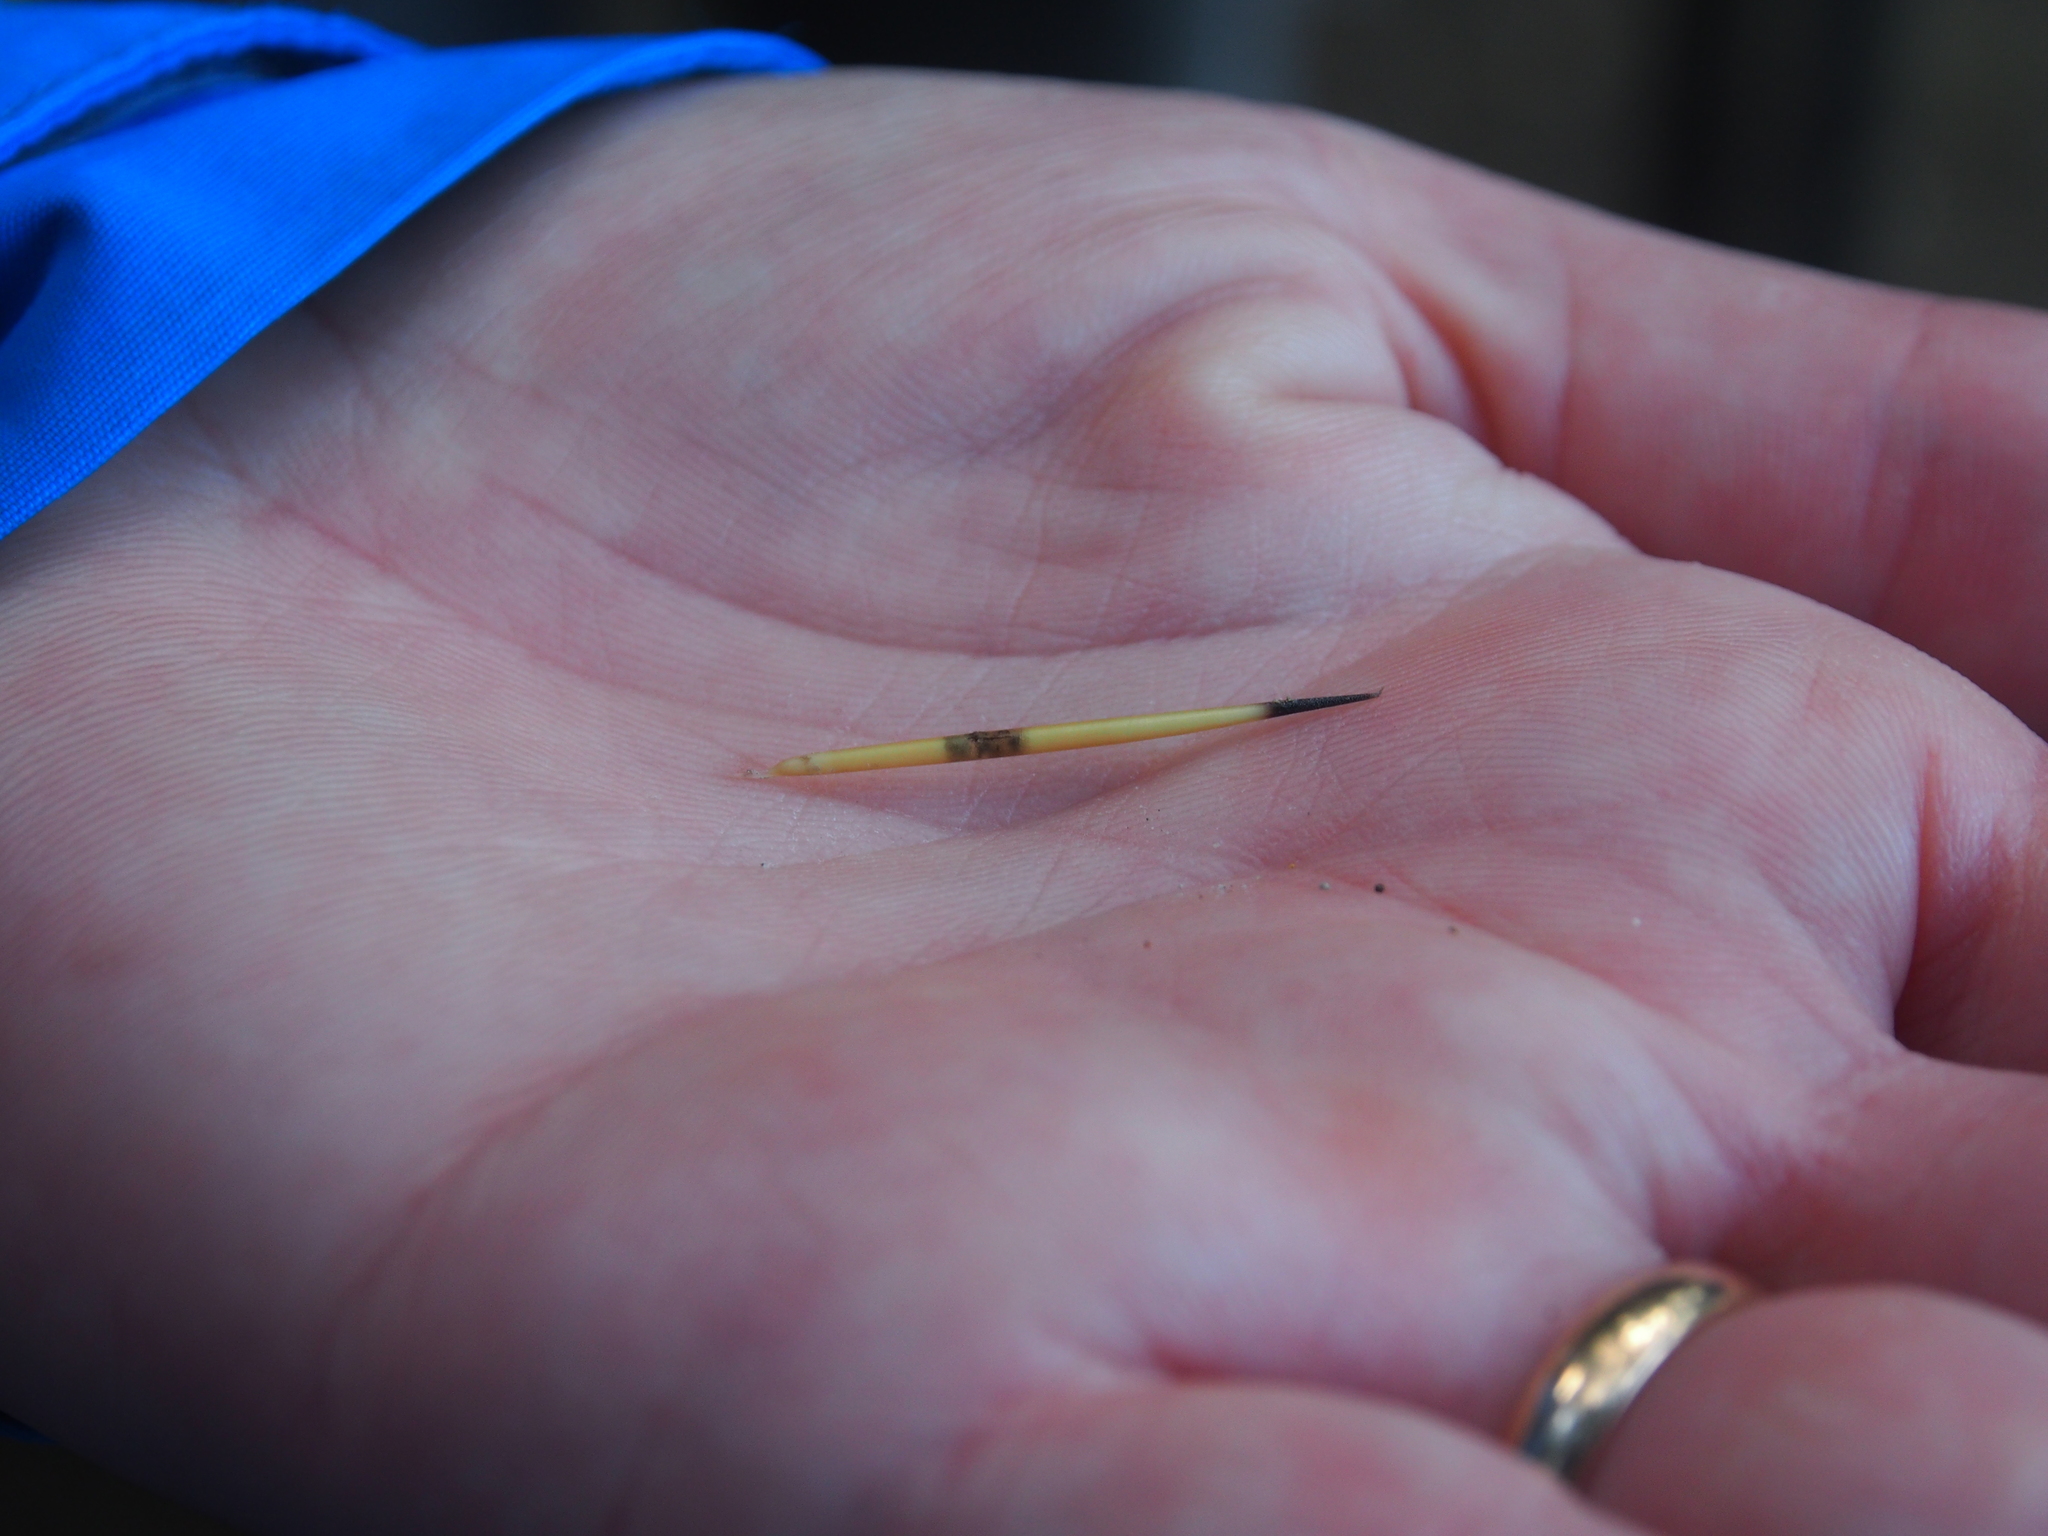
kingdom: Animalia
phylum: Chordata
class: Mammalia
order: Rodentia
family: Erethizontidae
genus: Sphiggurus
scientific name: Sphiggurus mexicanus
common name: Mexican hairy dwarf porcupine
